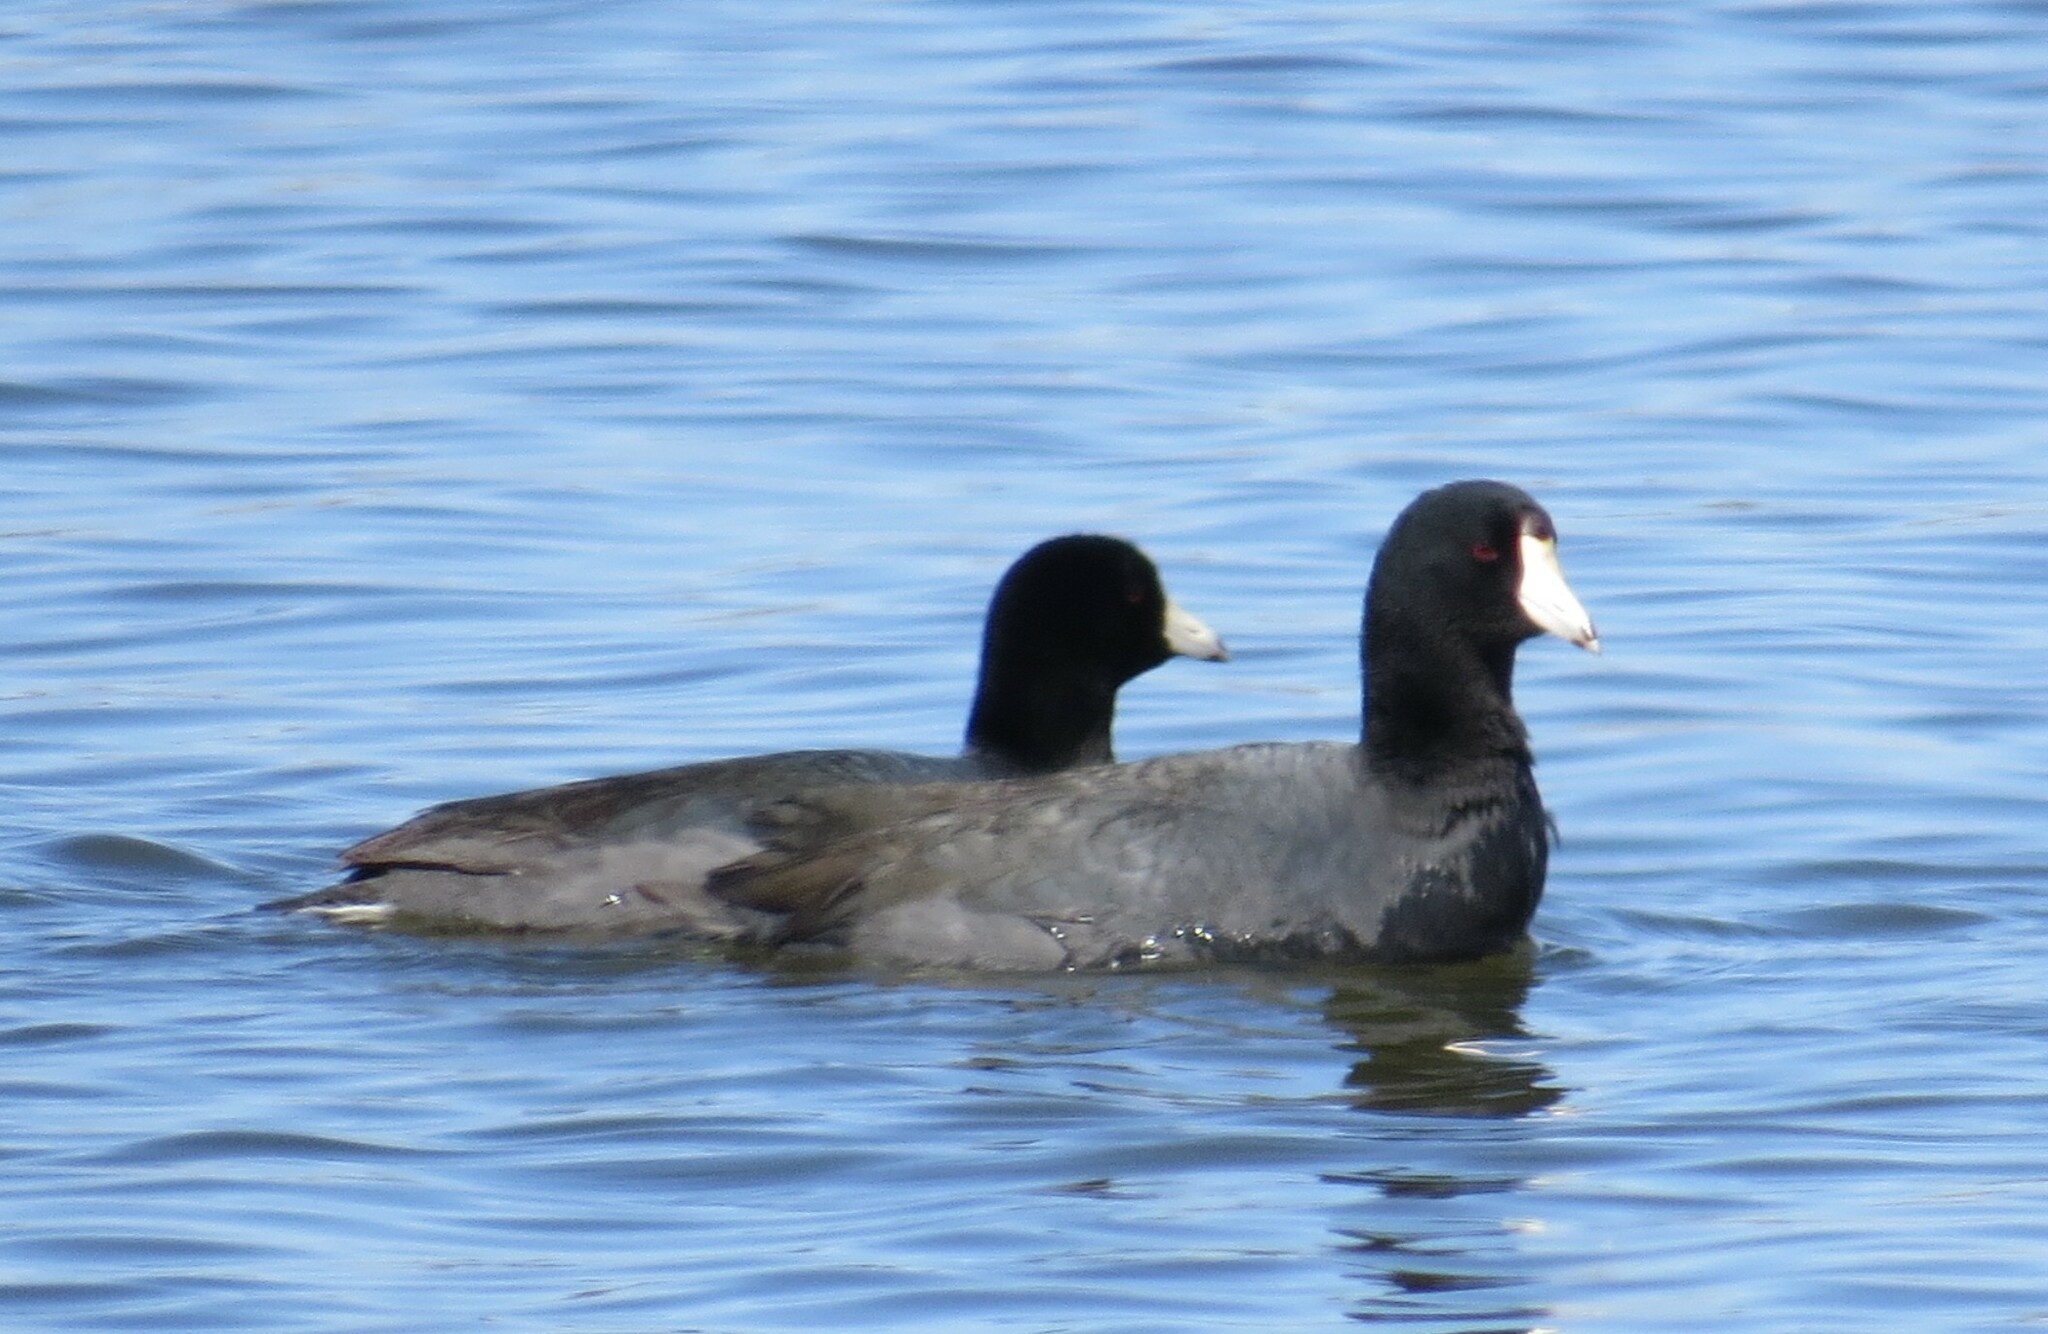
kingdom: Animalia
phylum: Chordata
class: Aves
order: Gruiformes
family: Rallidae
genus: Fulica
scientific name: Fulica americana
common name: American coot
